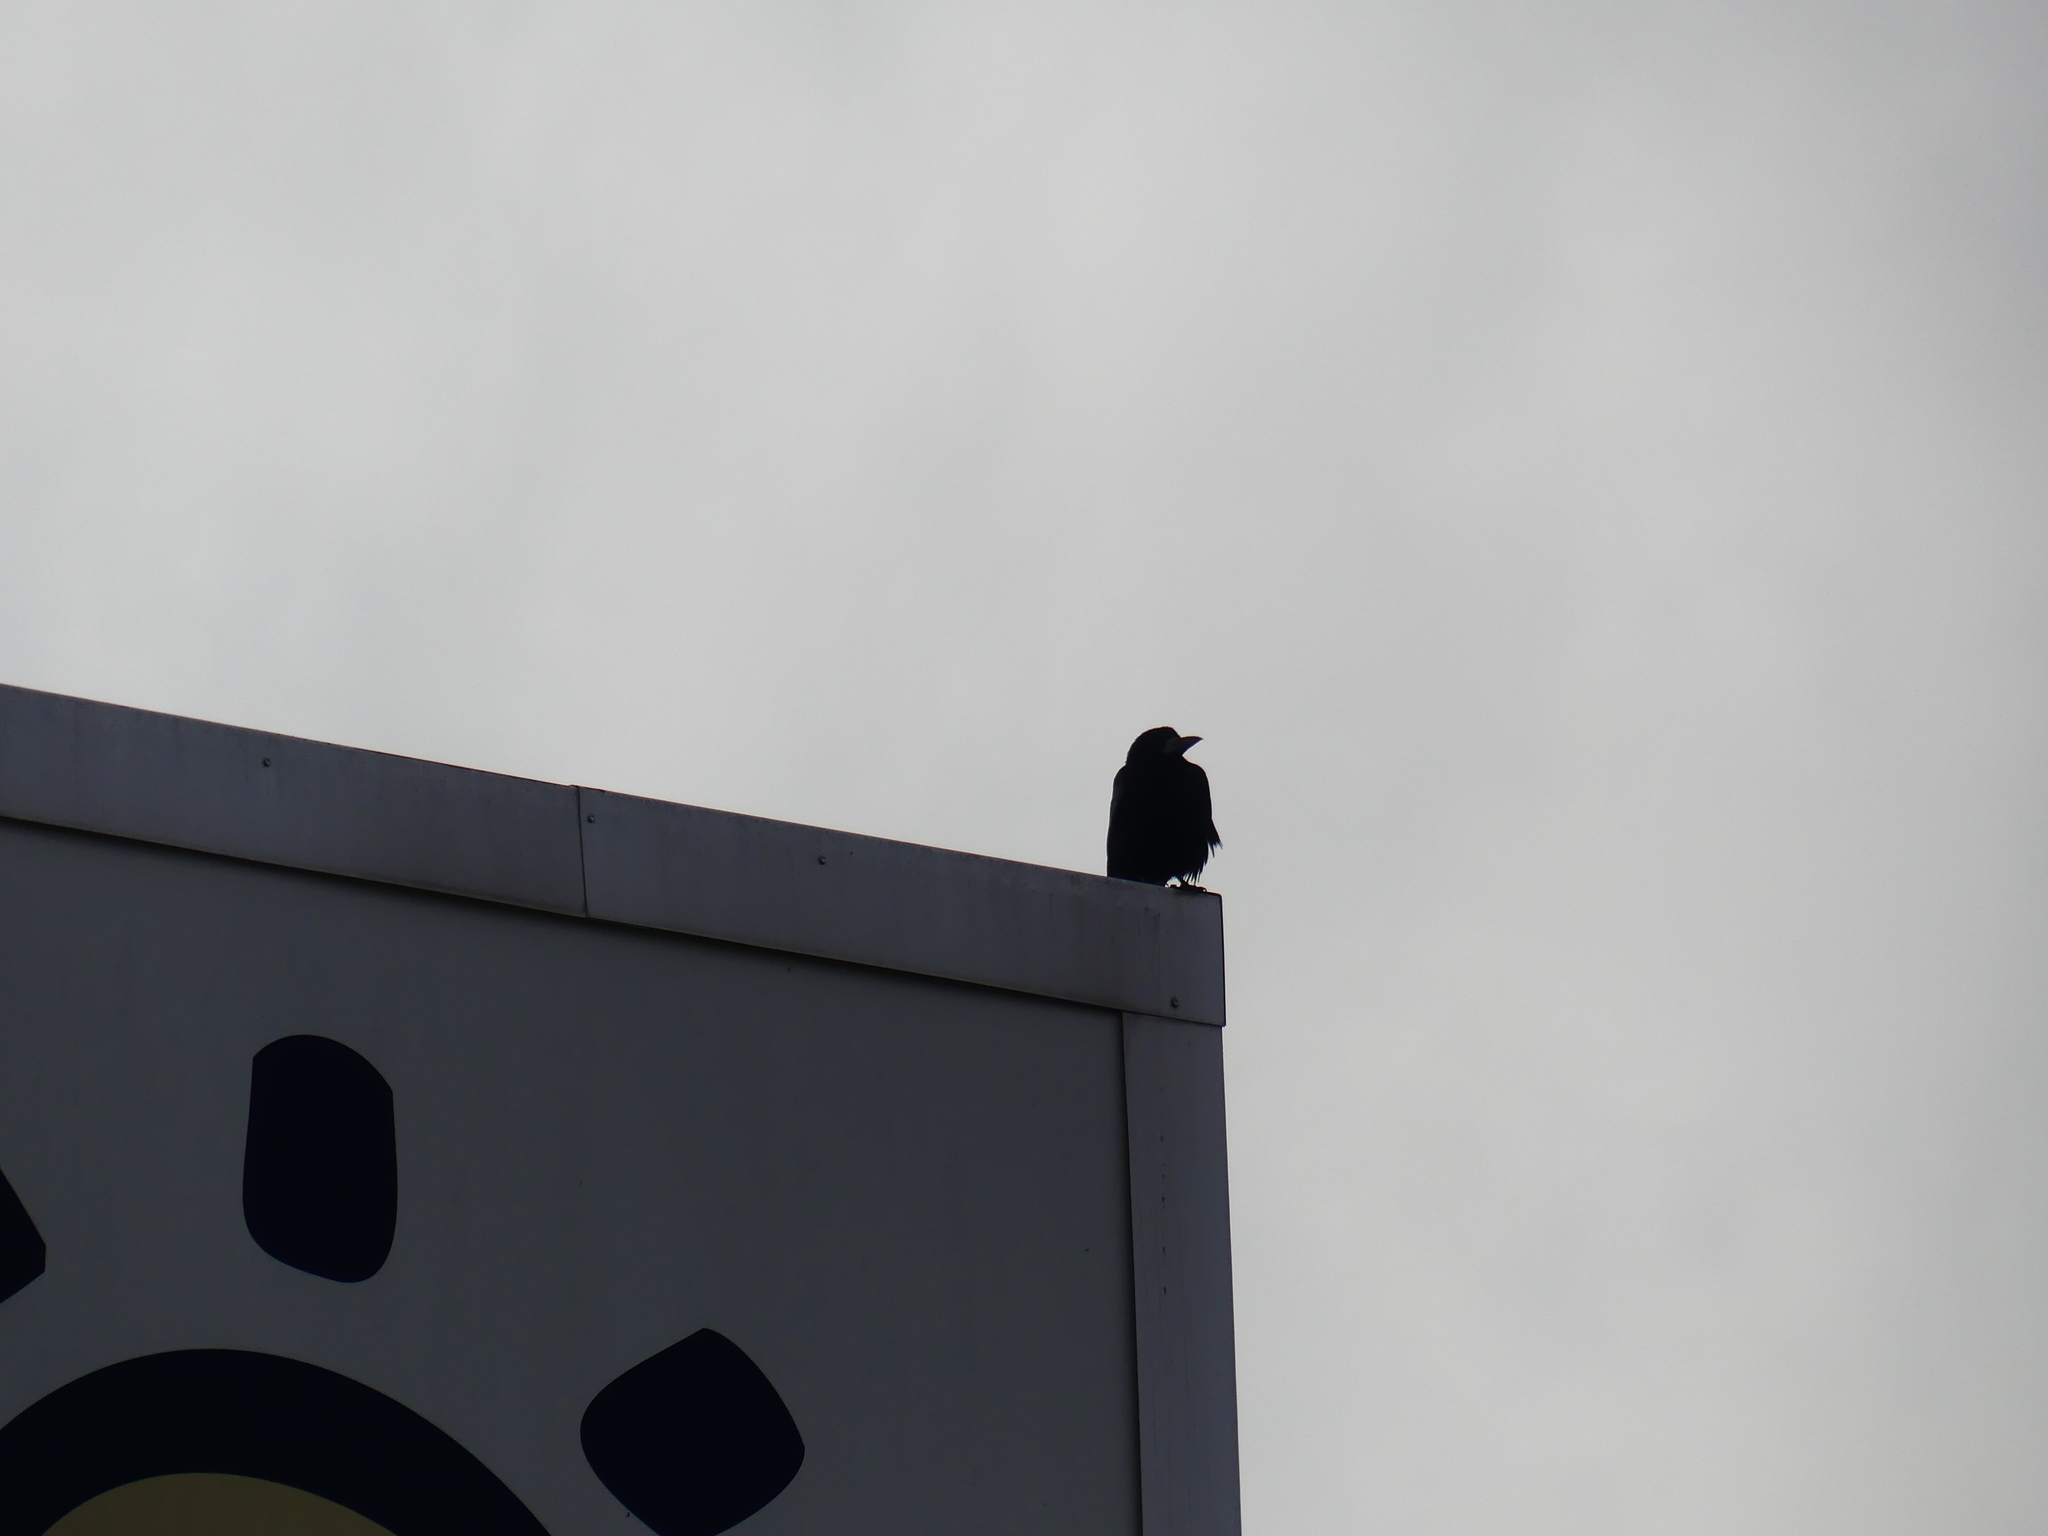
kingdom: Animalia
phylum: Chordata
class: Aves
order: Passeriformes
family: Corvidae
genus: Corvus
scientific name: Corvus frugilegus
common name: Rook
